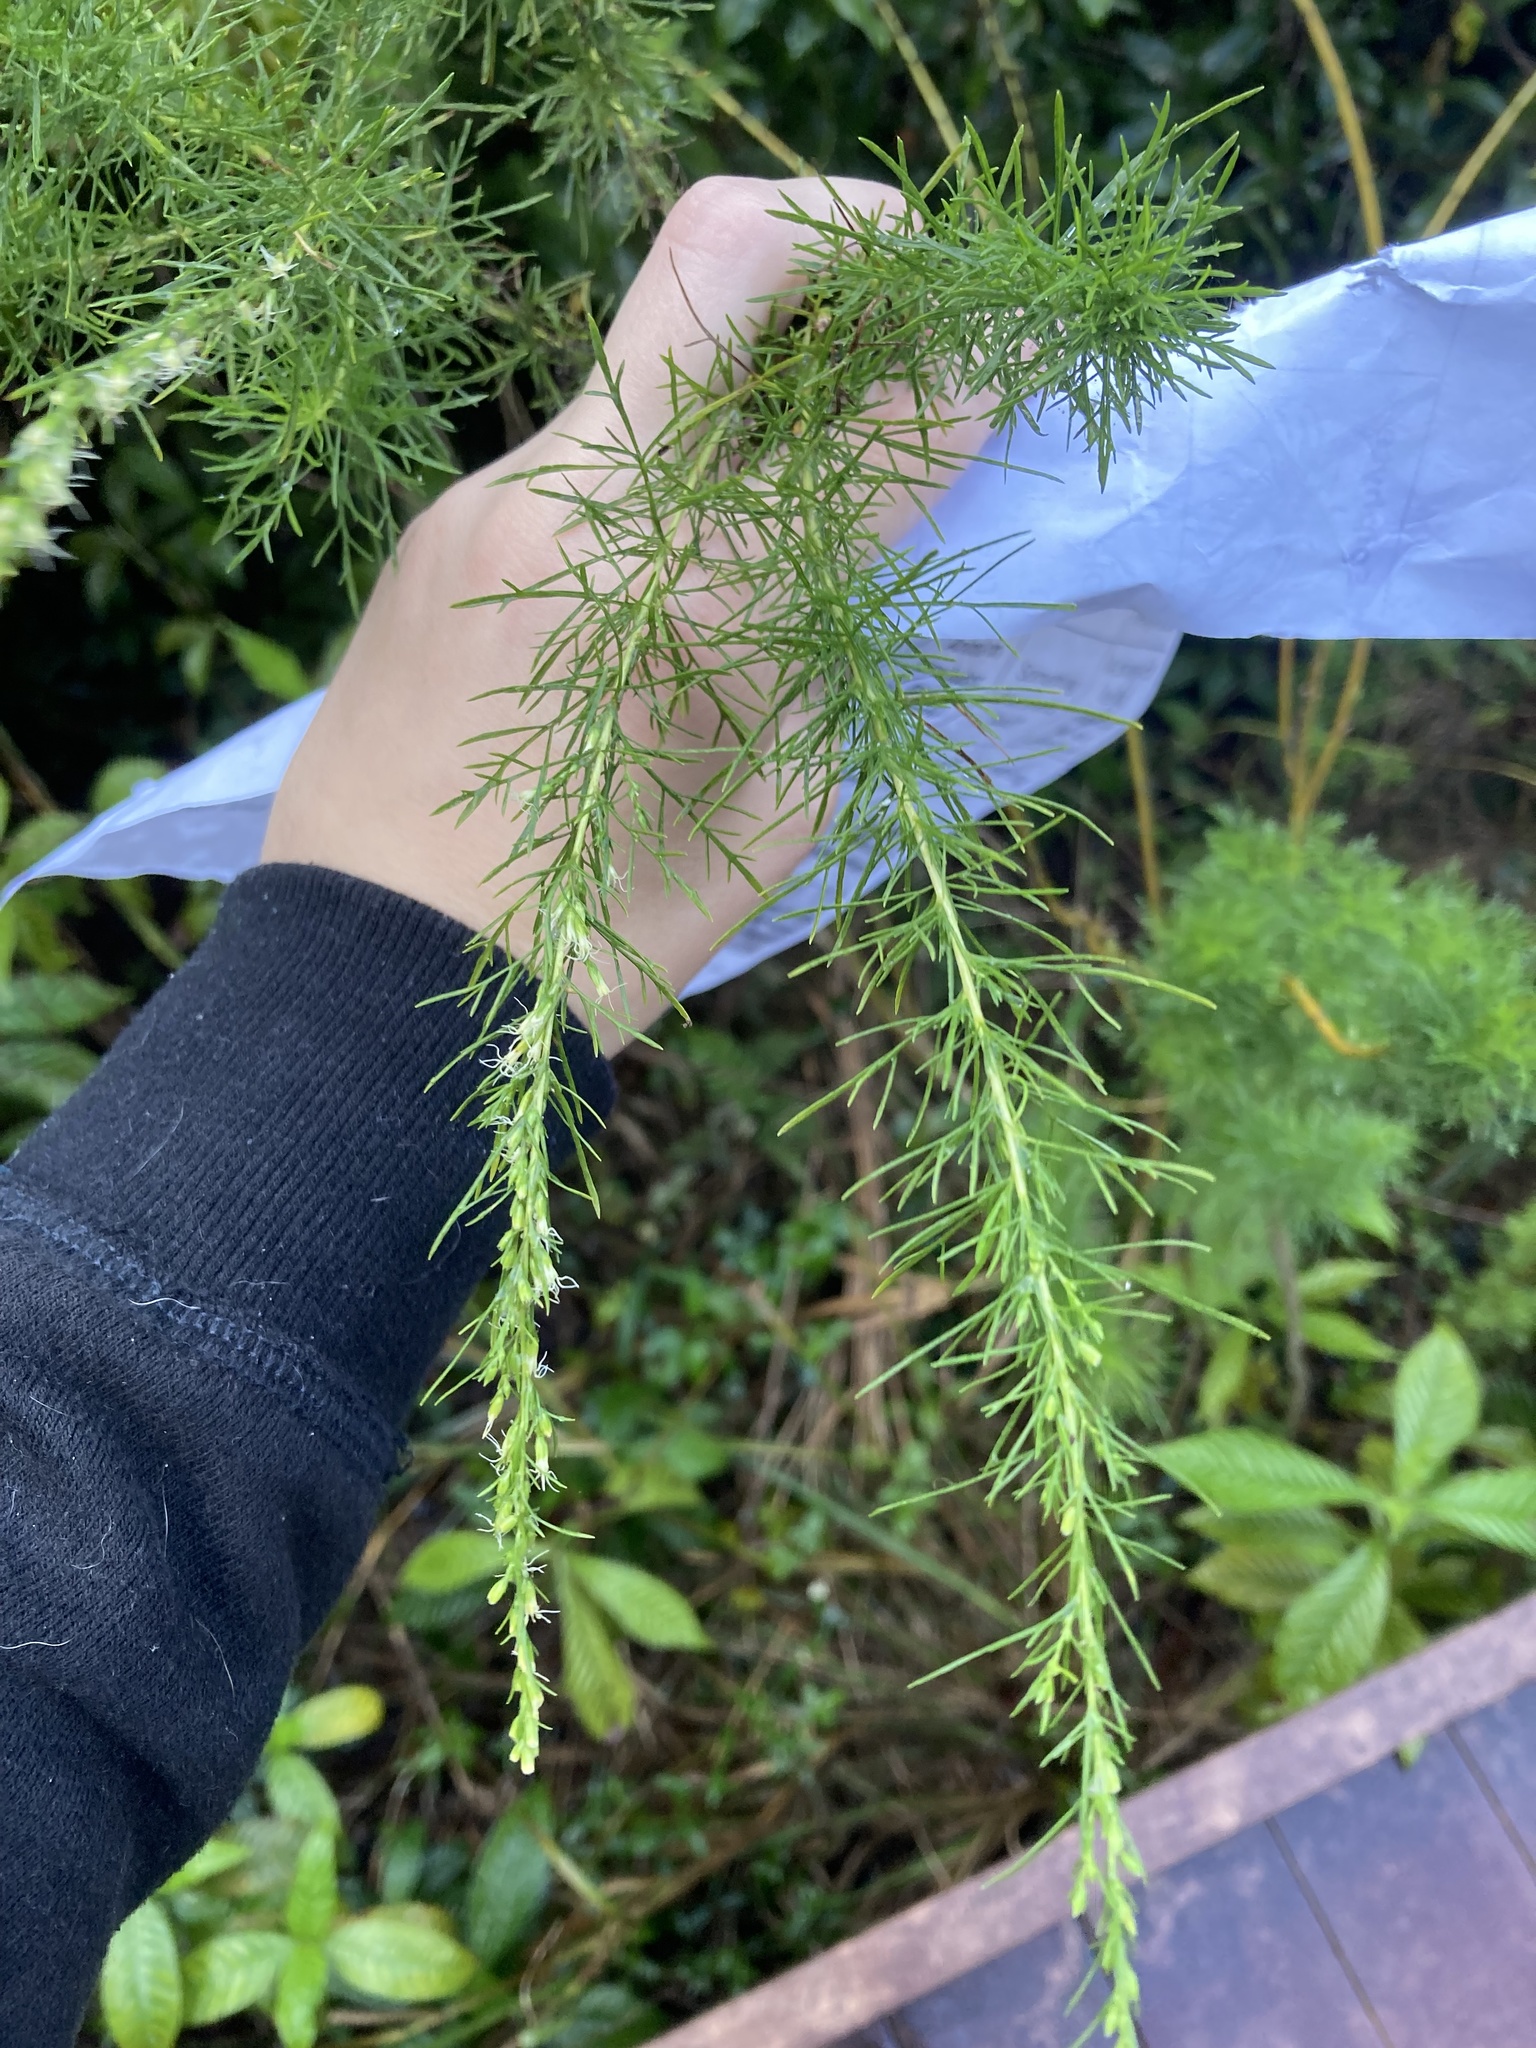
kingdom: Plantae
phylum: Tracheophyta
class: Magnoliopsida
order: Asterales
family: Asteraceae
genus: Eupatorium
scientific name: Eupatorium capillifolium
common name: Dog-fennel
